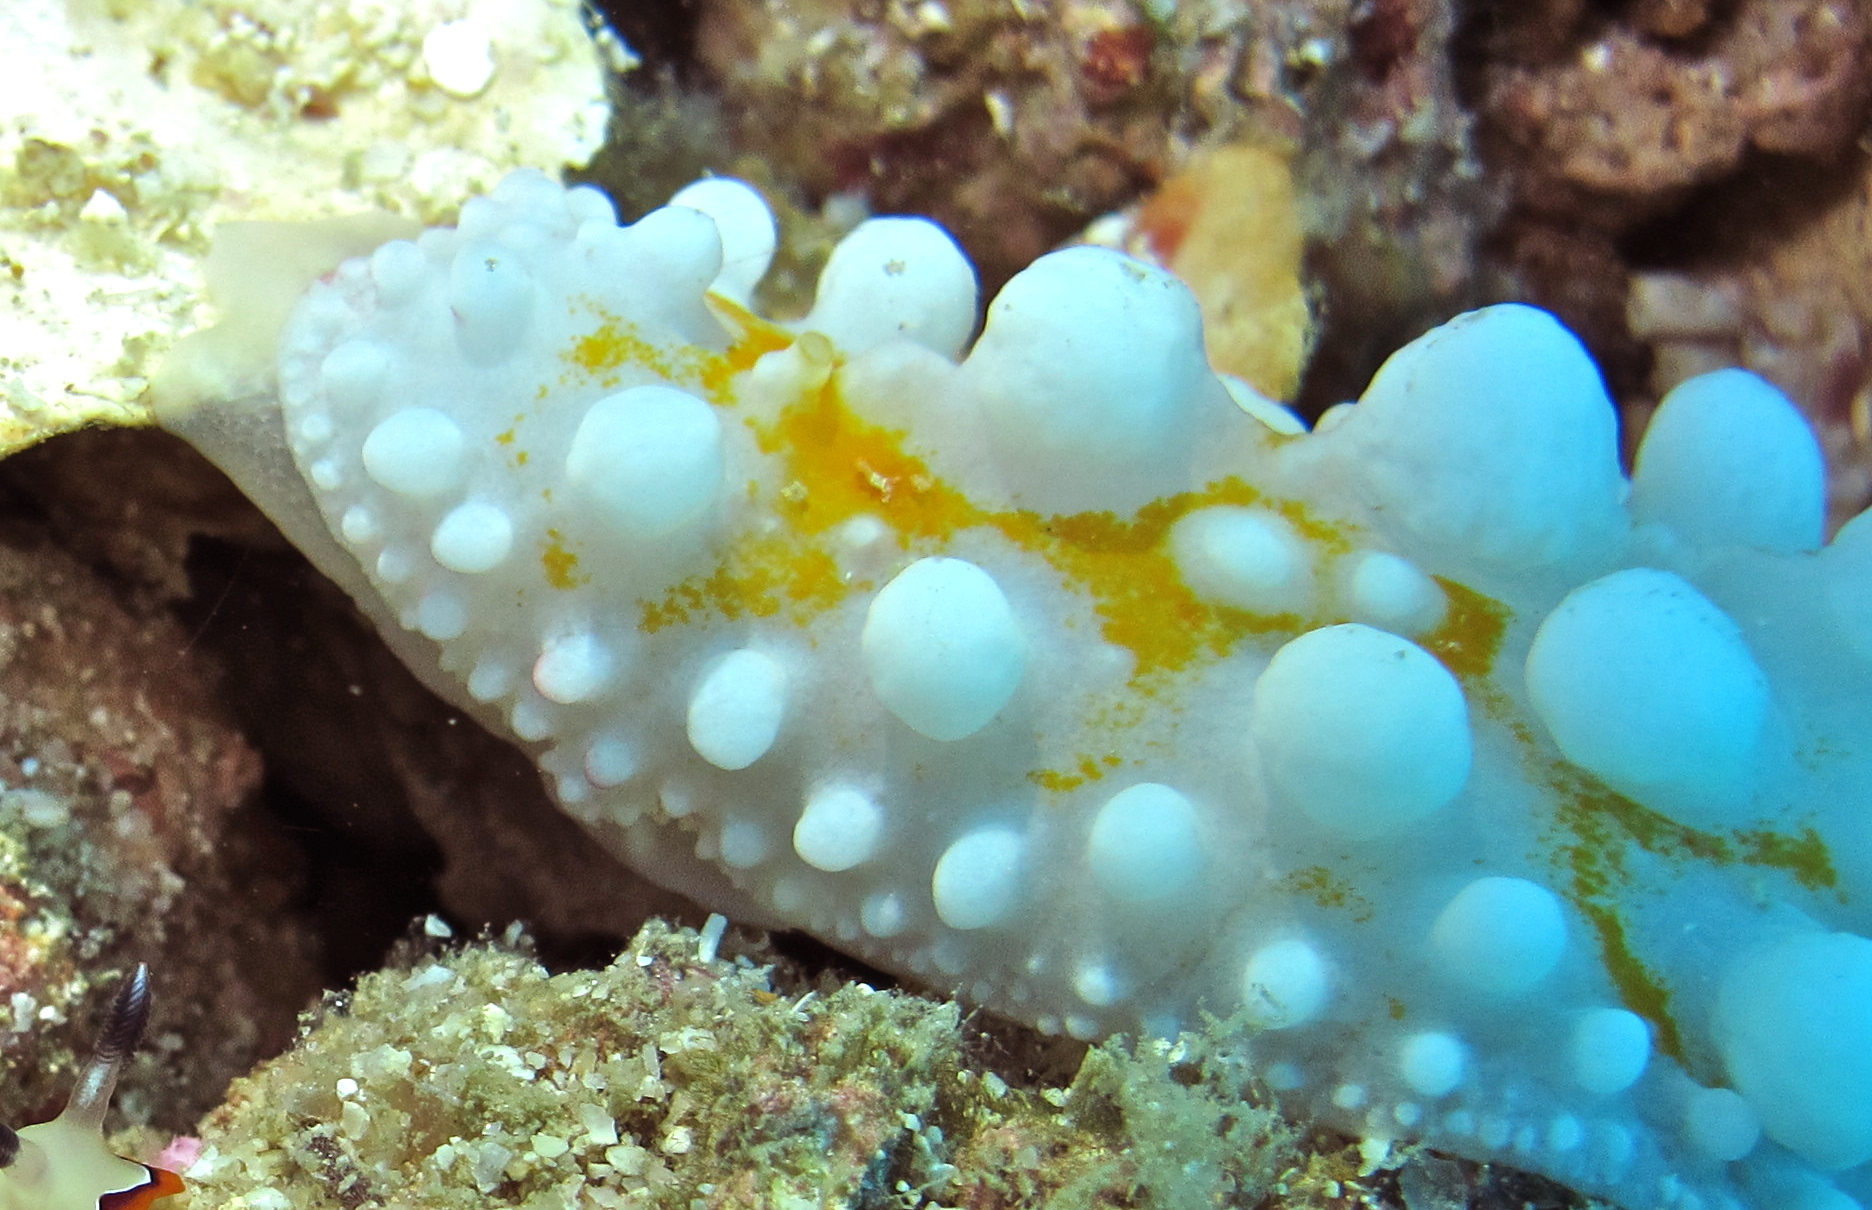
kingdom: Animalia
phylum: Mollusca
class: Gastropoda
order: Nudibranchia
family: Phyllidiidae
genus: Phyllidia
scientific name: Phyllidia ocellata
